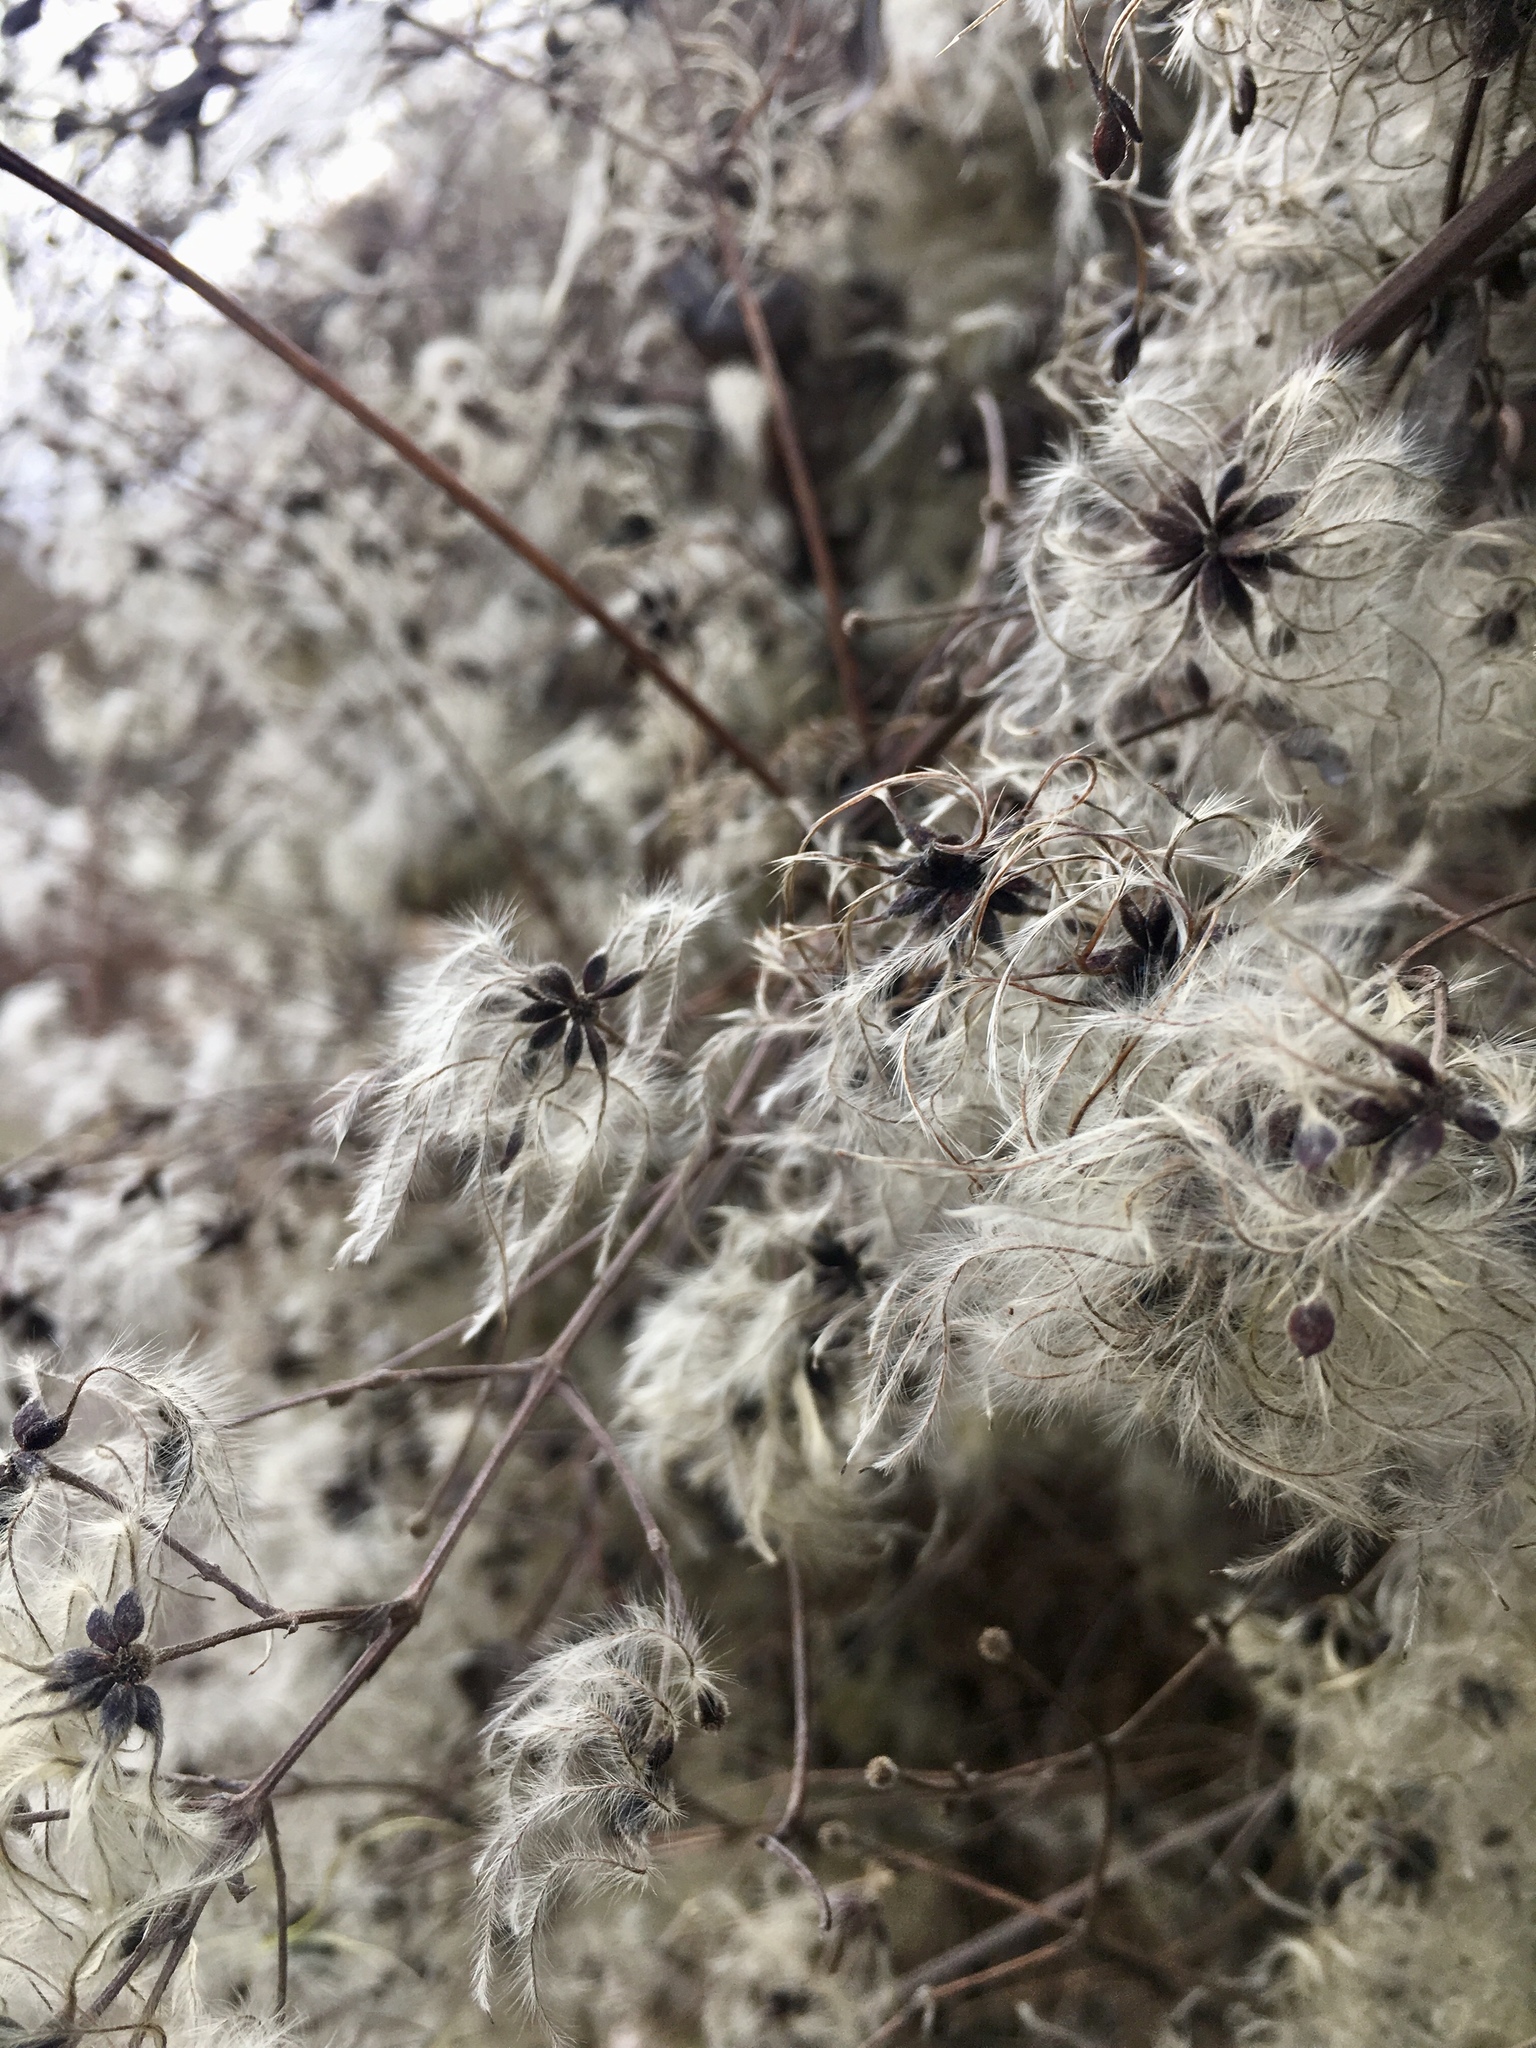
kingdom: Plantae
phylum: Tracheophyta
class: Magnoliopsida
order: Ranunculales
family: Ranunculaceae
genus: Clematis
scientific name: Clematis vitalba
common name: Evergreen clematis
